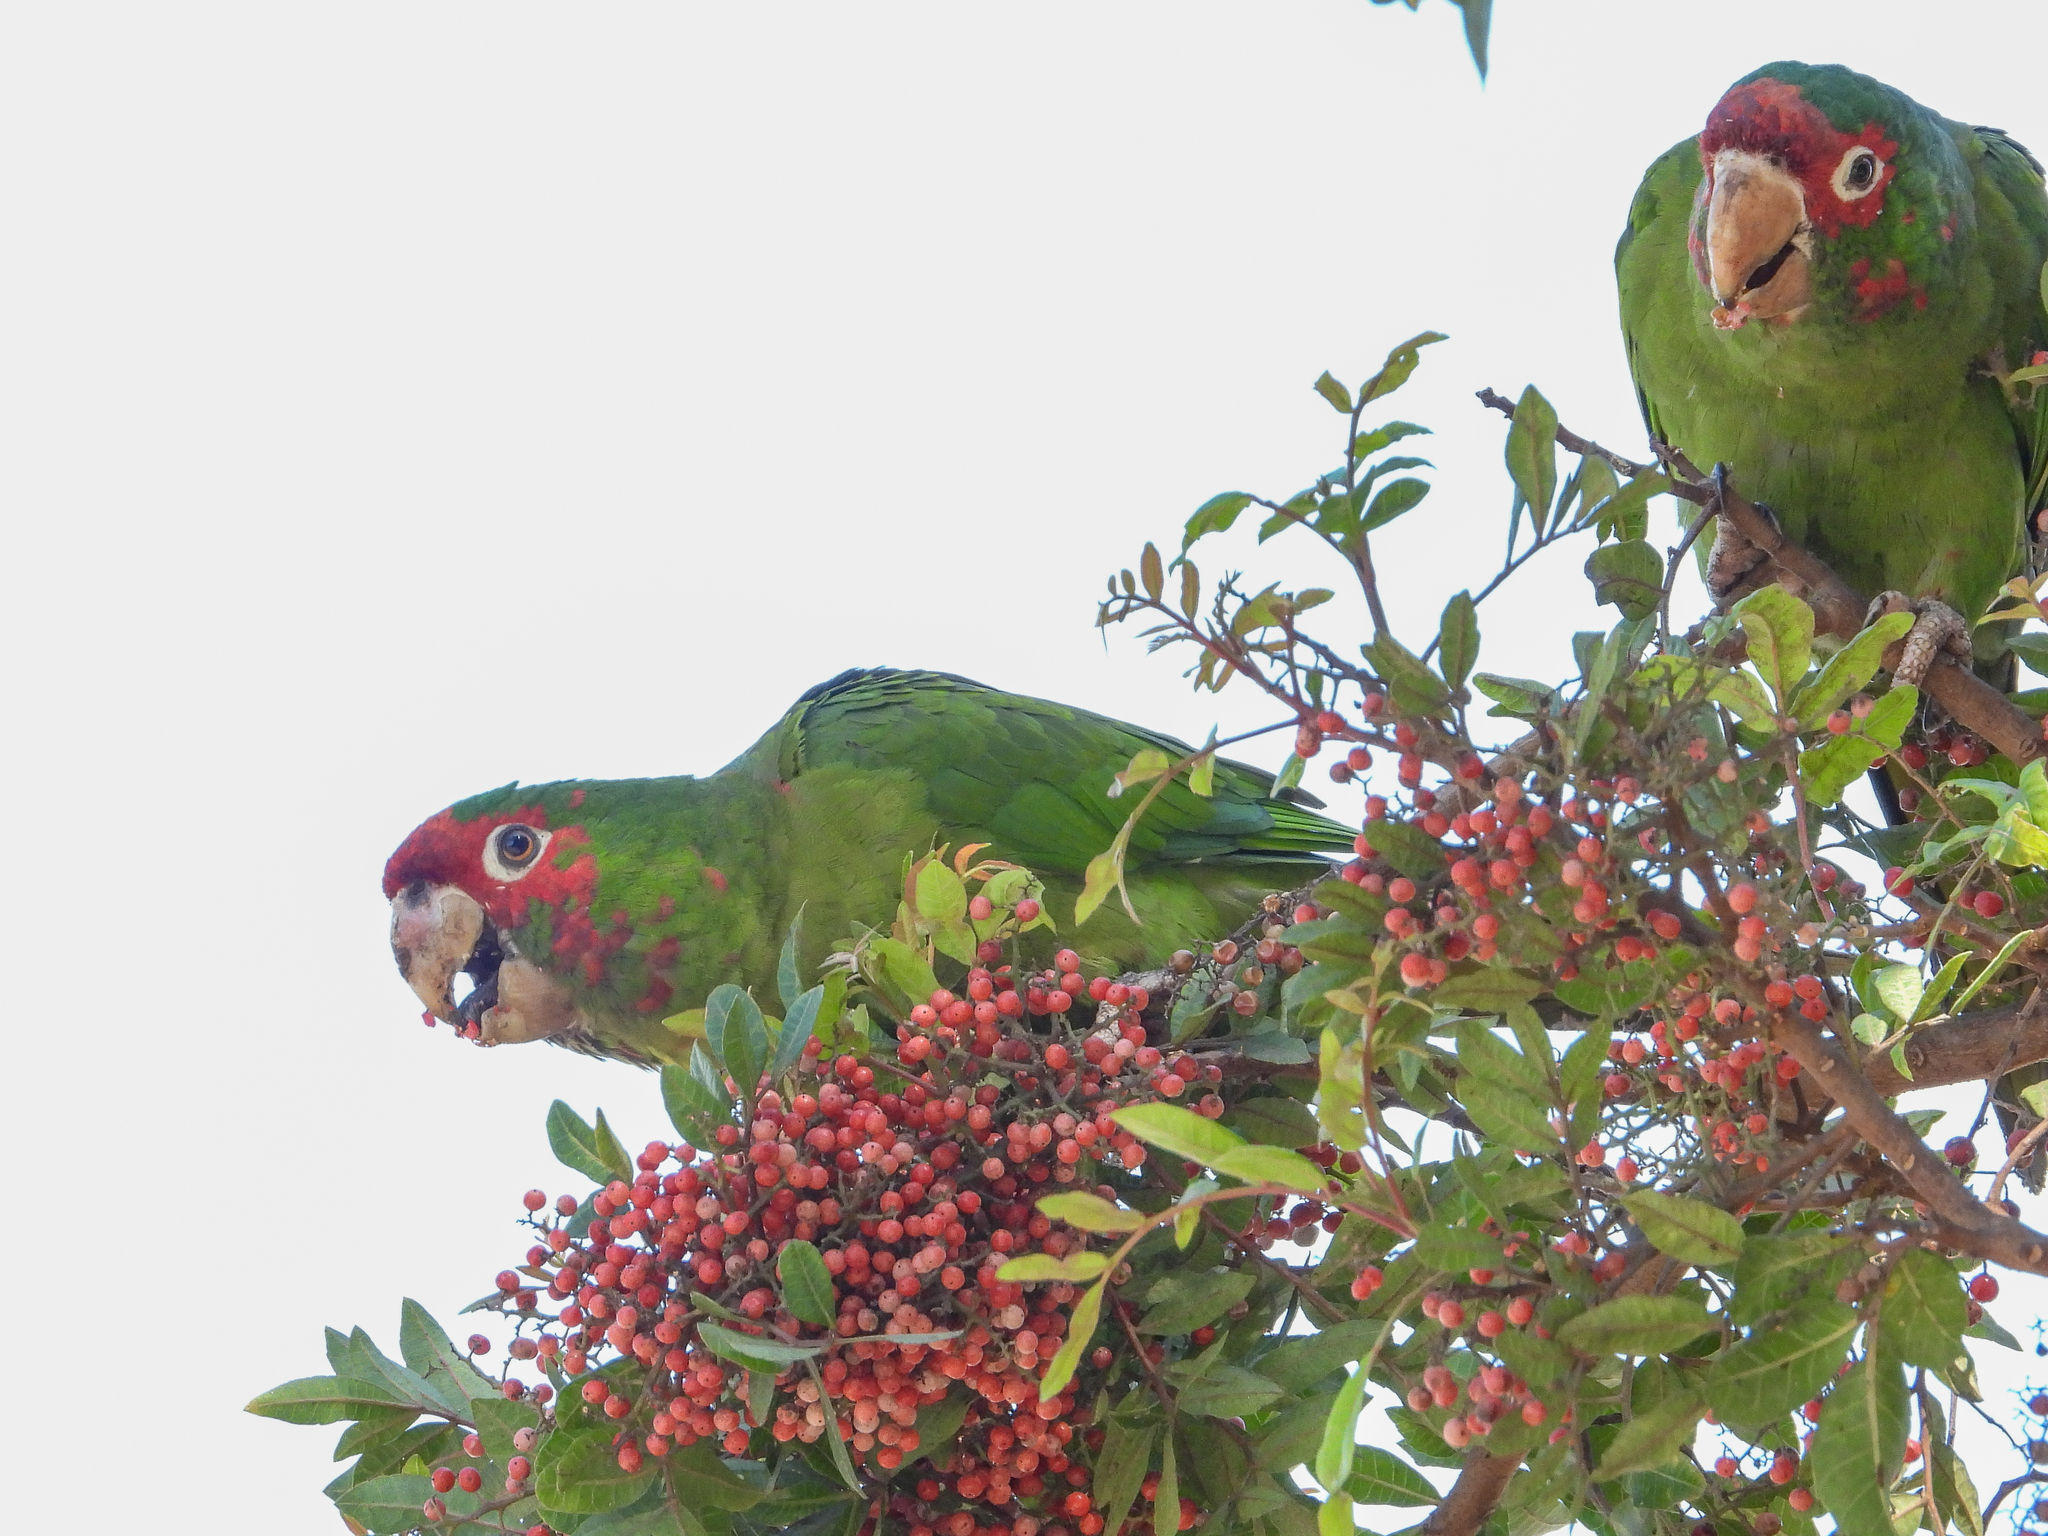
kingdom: Animalia
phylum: Chordata
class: Aves
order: Psittaciformes
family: Psittacidae
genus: Aratinga
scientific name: Aratinga mitrata
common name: Mitred parakeet
